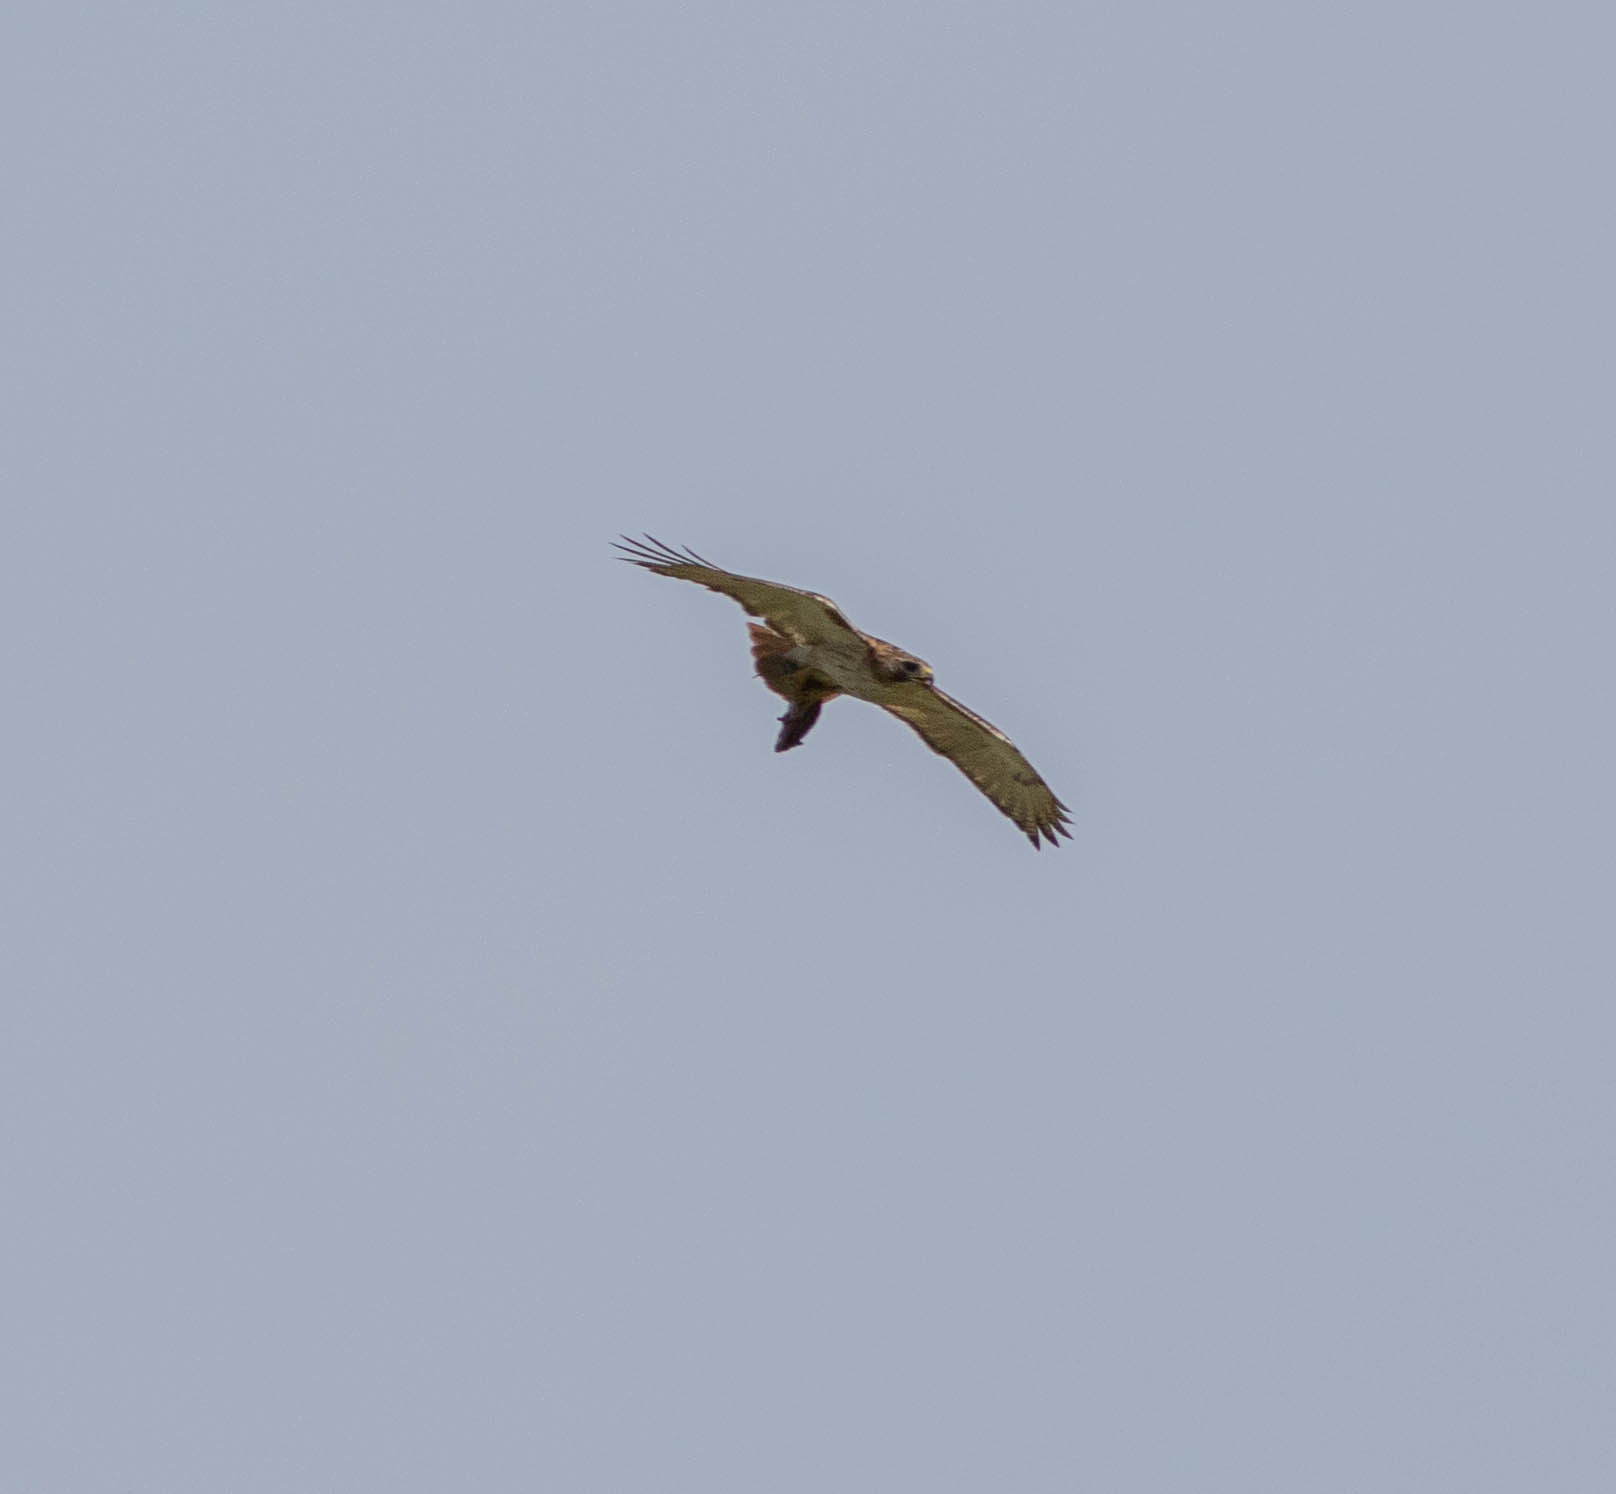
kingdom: Animalia
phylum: Chordata
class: Aves
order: Accipitriformes
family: Accipitridae
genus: Buteo
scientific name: Buteo jamaicensis
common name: Red-tailed hawk
